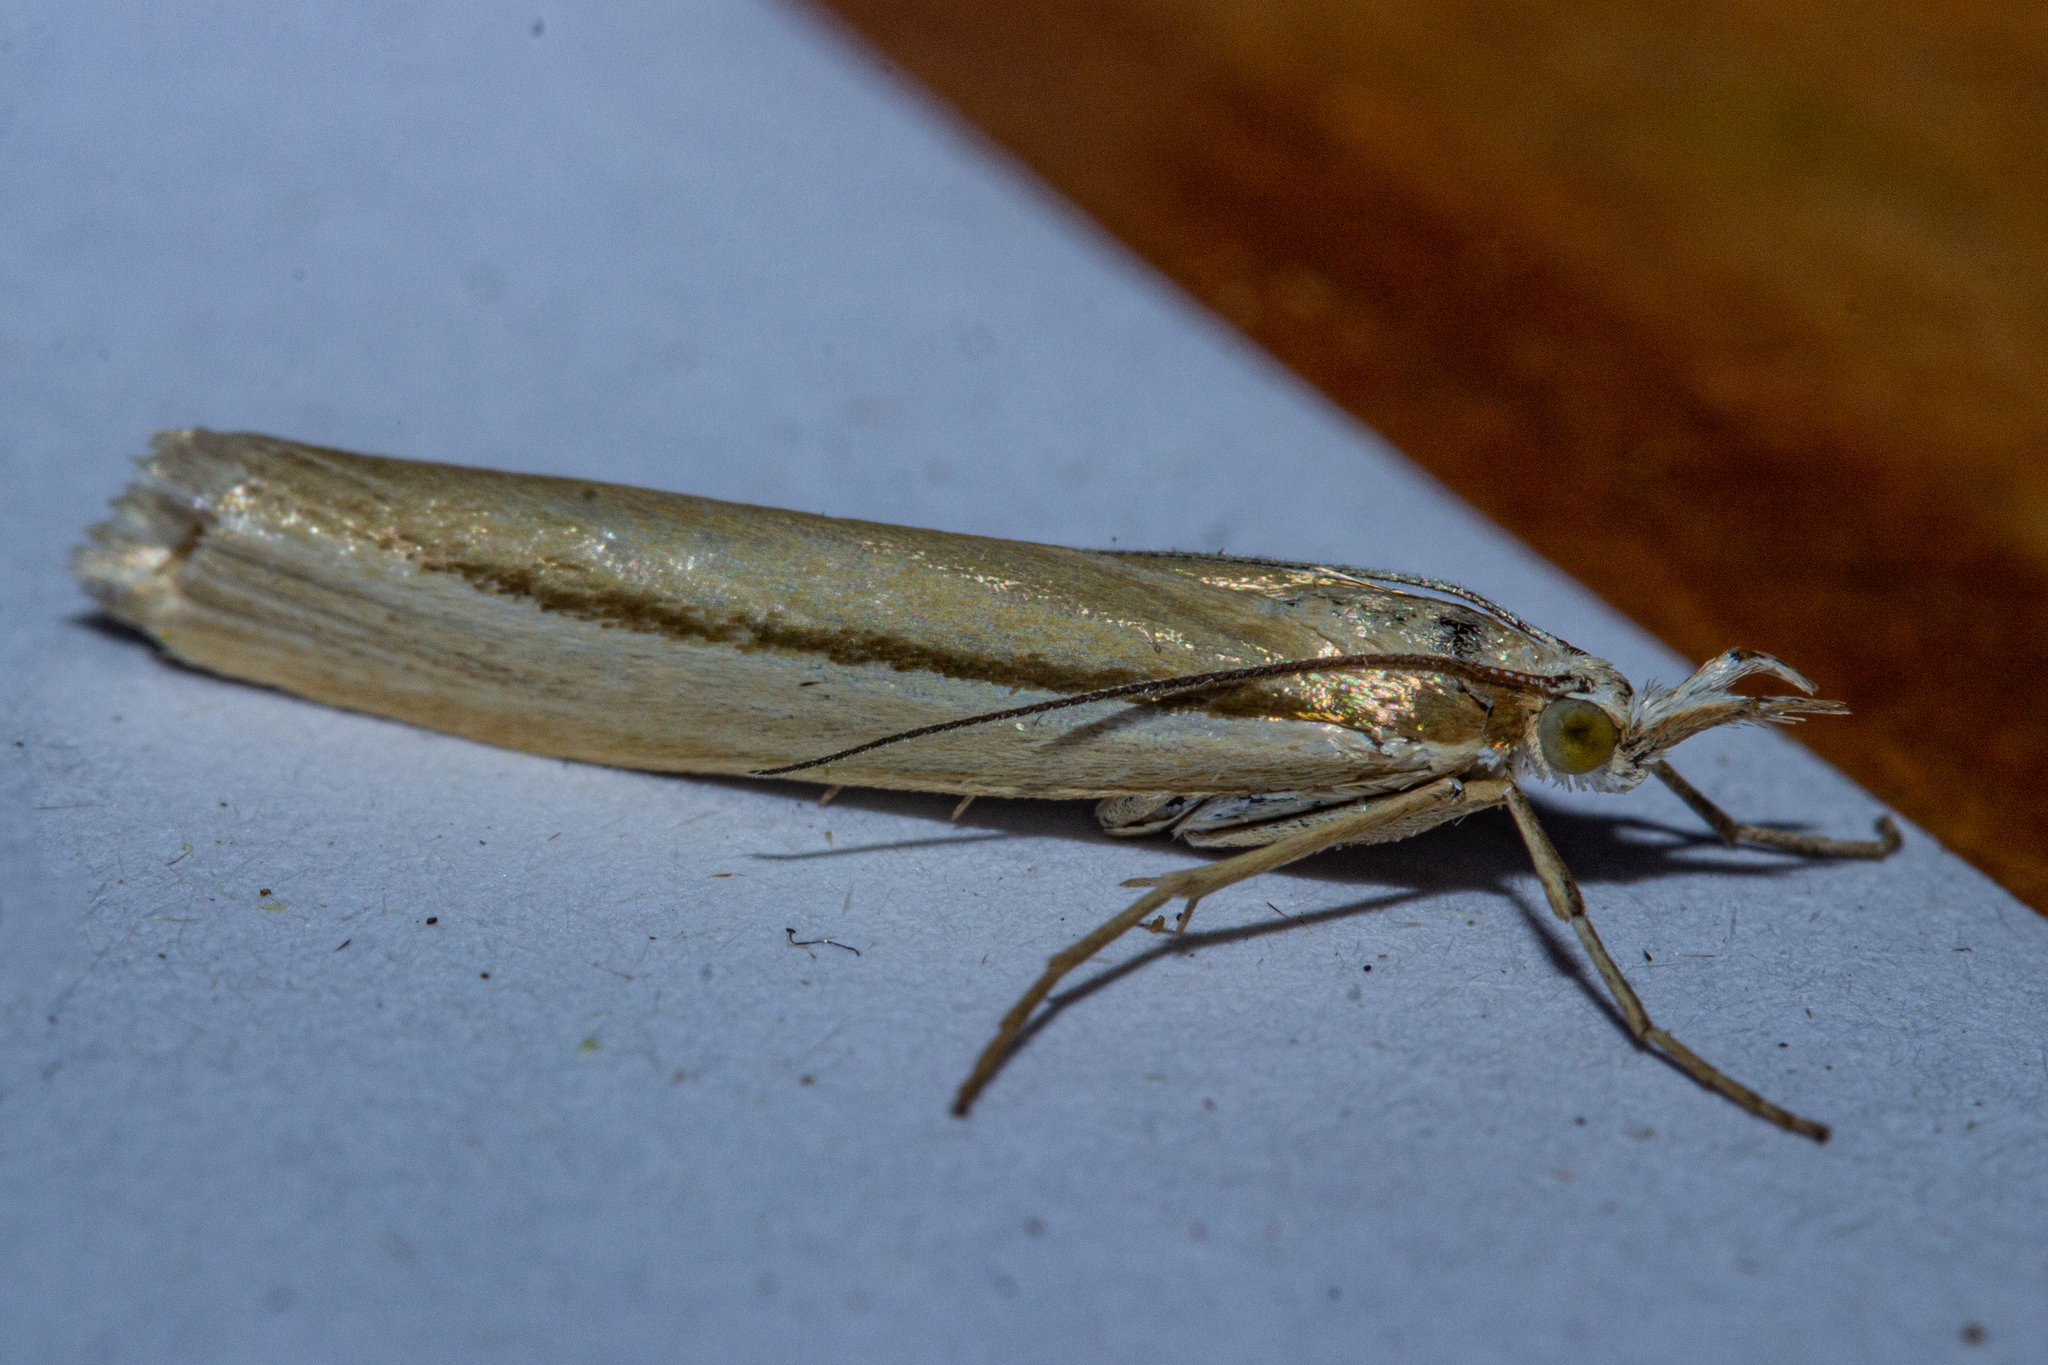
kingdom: Animalia
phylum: Arthropoda
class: Insecta
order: Lepidoptera
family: Crambidae
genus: Orocrambus
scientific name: Orocrambus ramosellus
